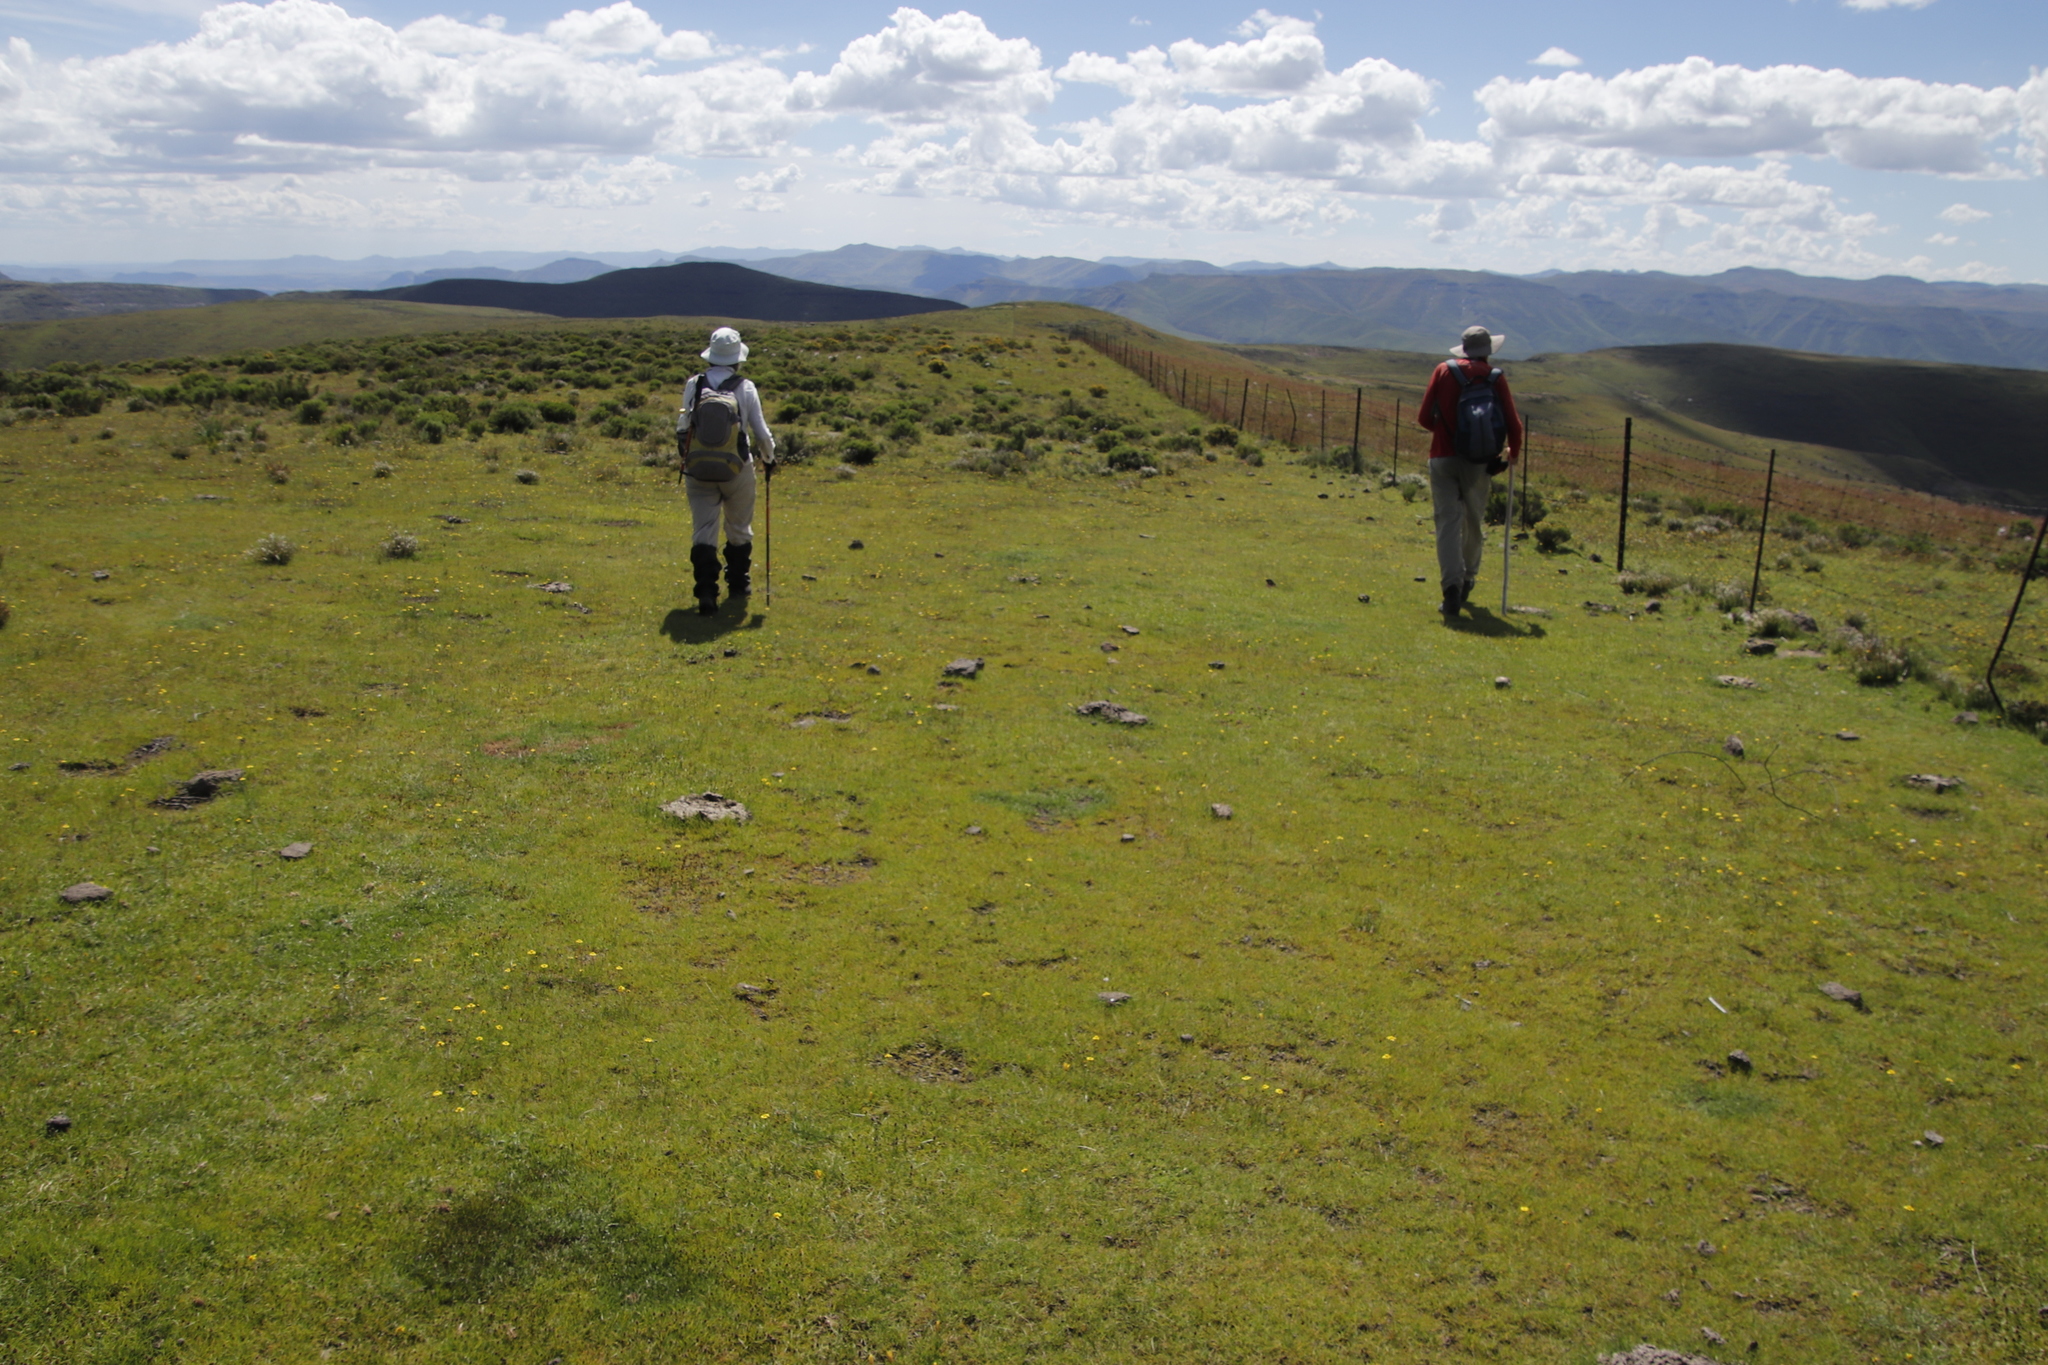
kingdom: Plantae
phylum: Tracheophyta
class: Liliopsida
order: Poales
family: Cyperaceae
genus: Cyperus
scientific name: Cyperus bracheilema
